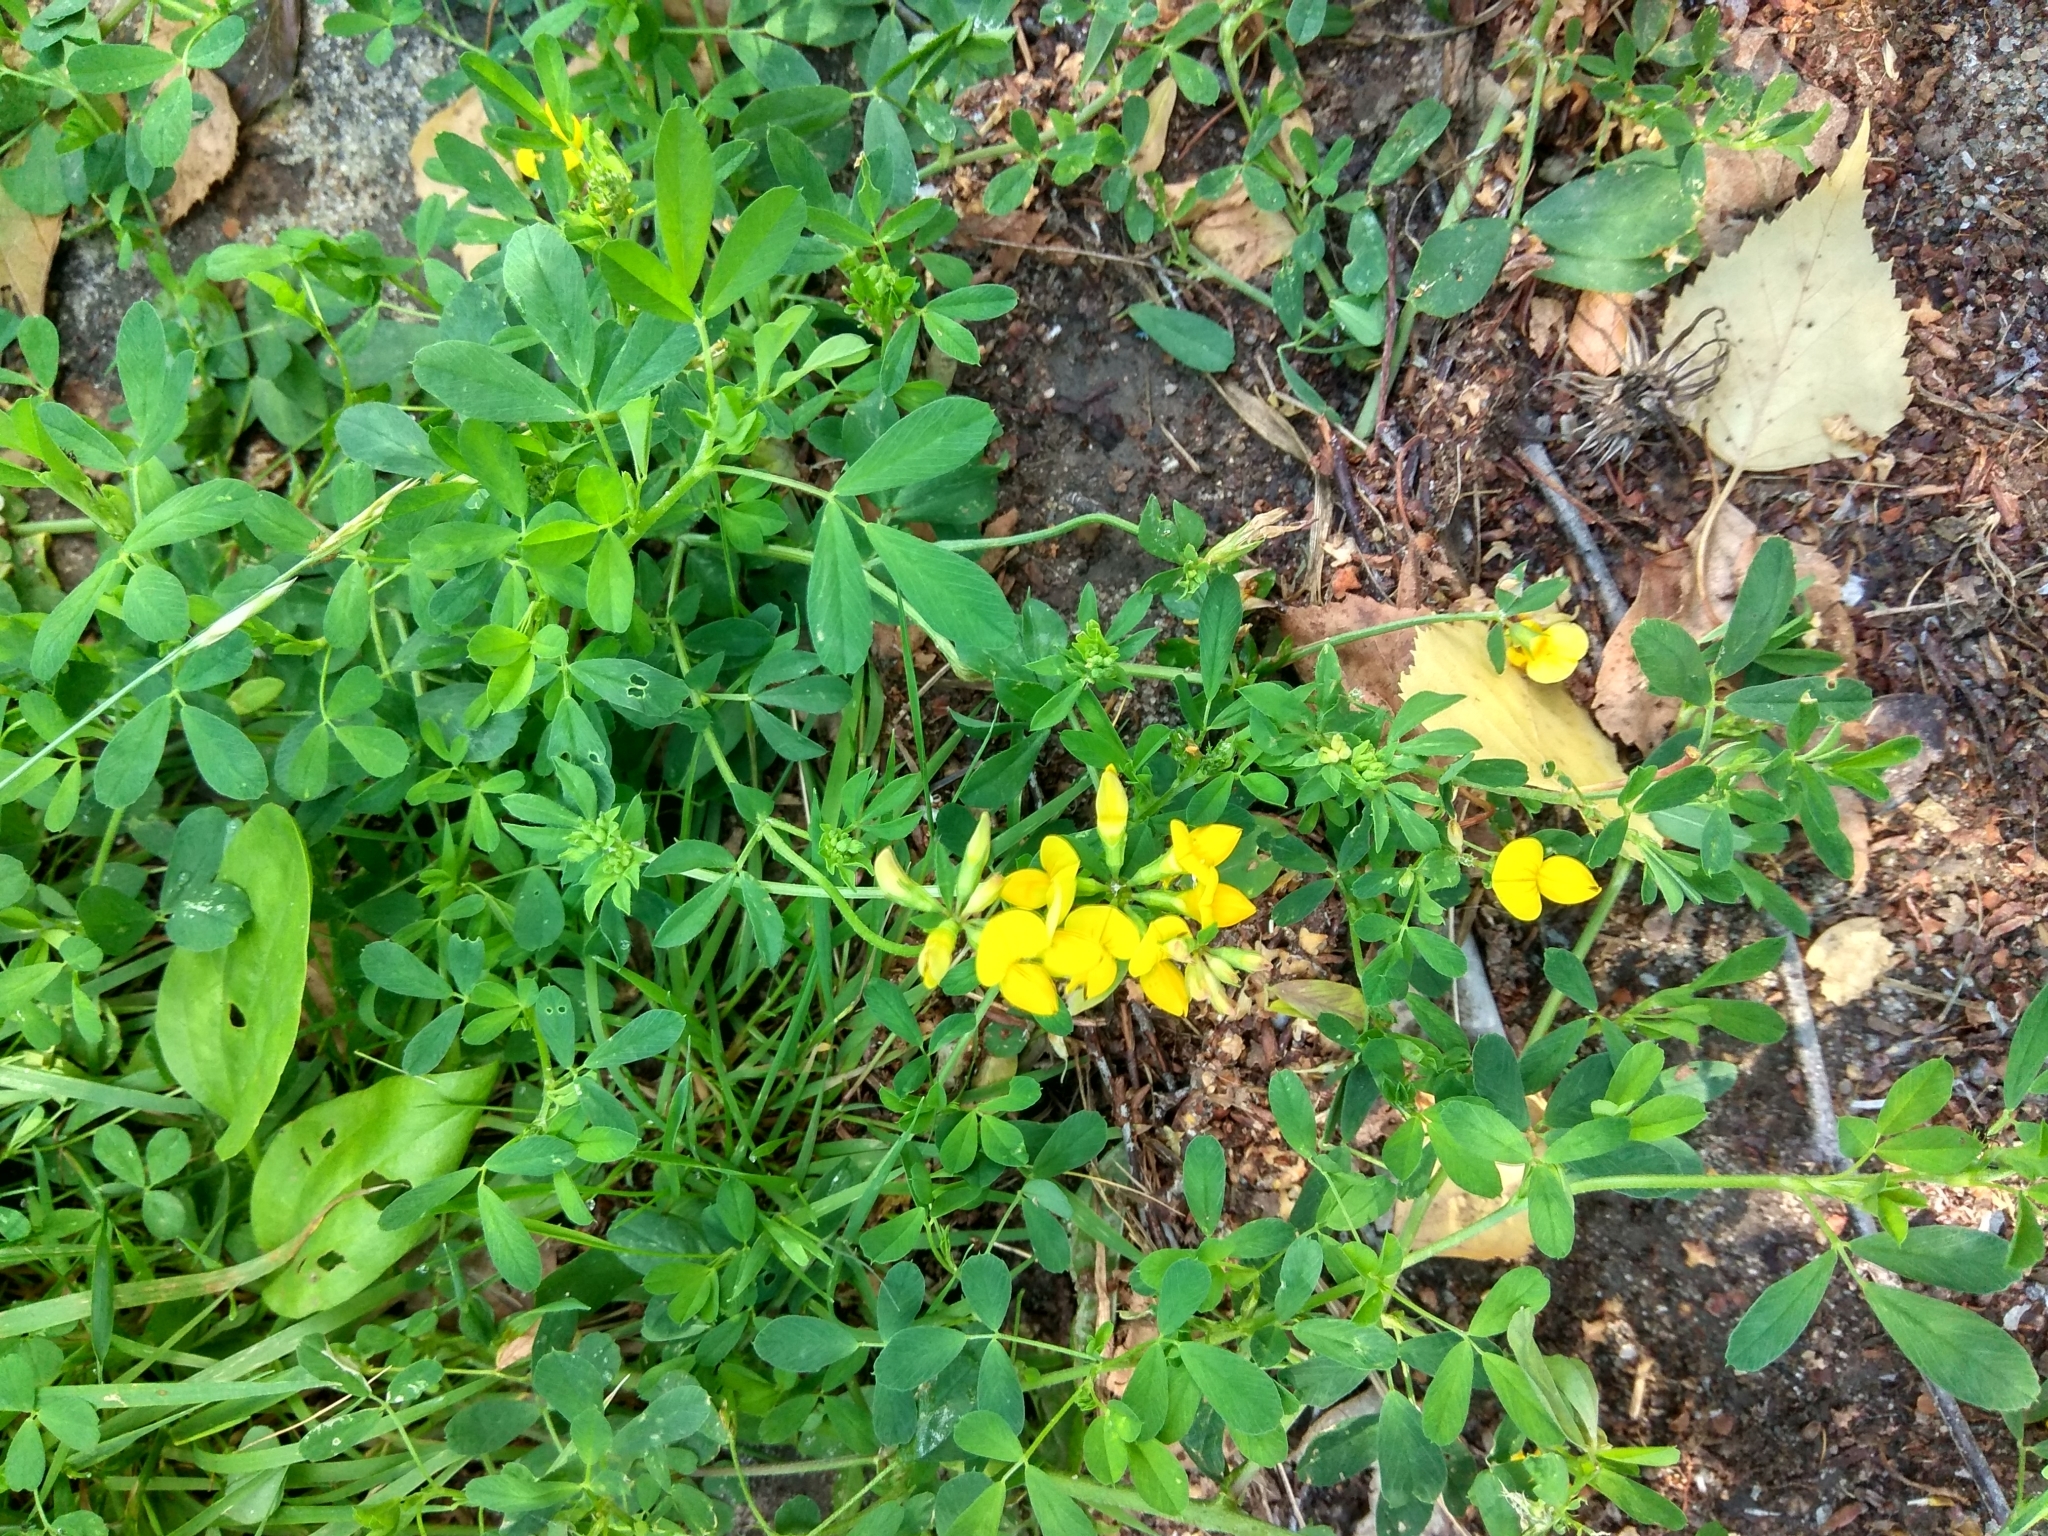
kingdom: Plantae
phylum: Tracheophyta
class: Magnoliopsida
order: Fabales
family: Fabaceae
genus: Lotus
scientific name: Lotus corniculatus
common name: Common bird's-foot-trefoil
